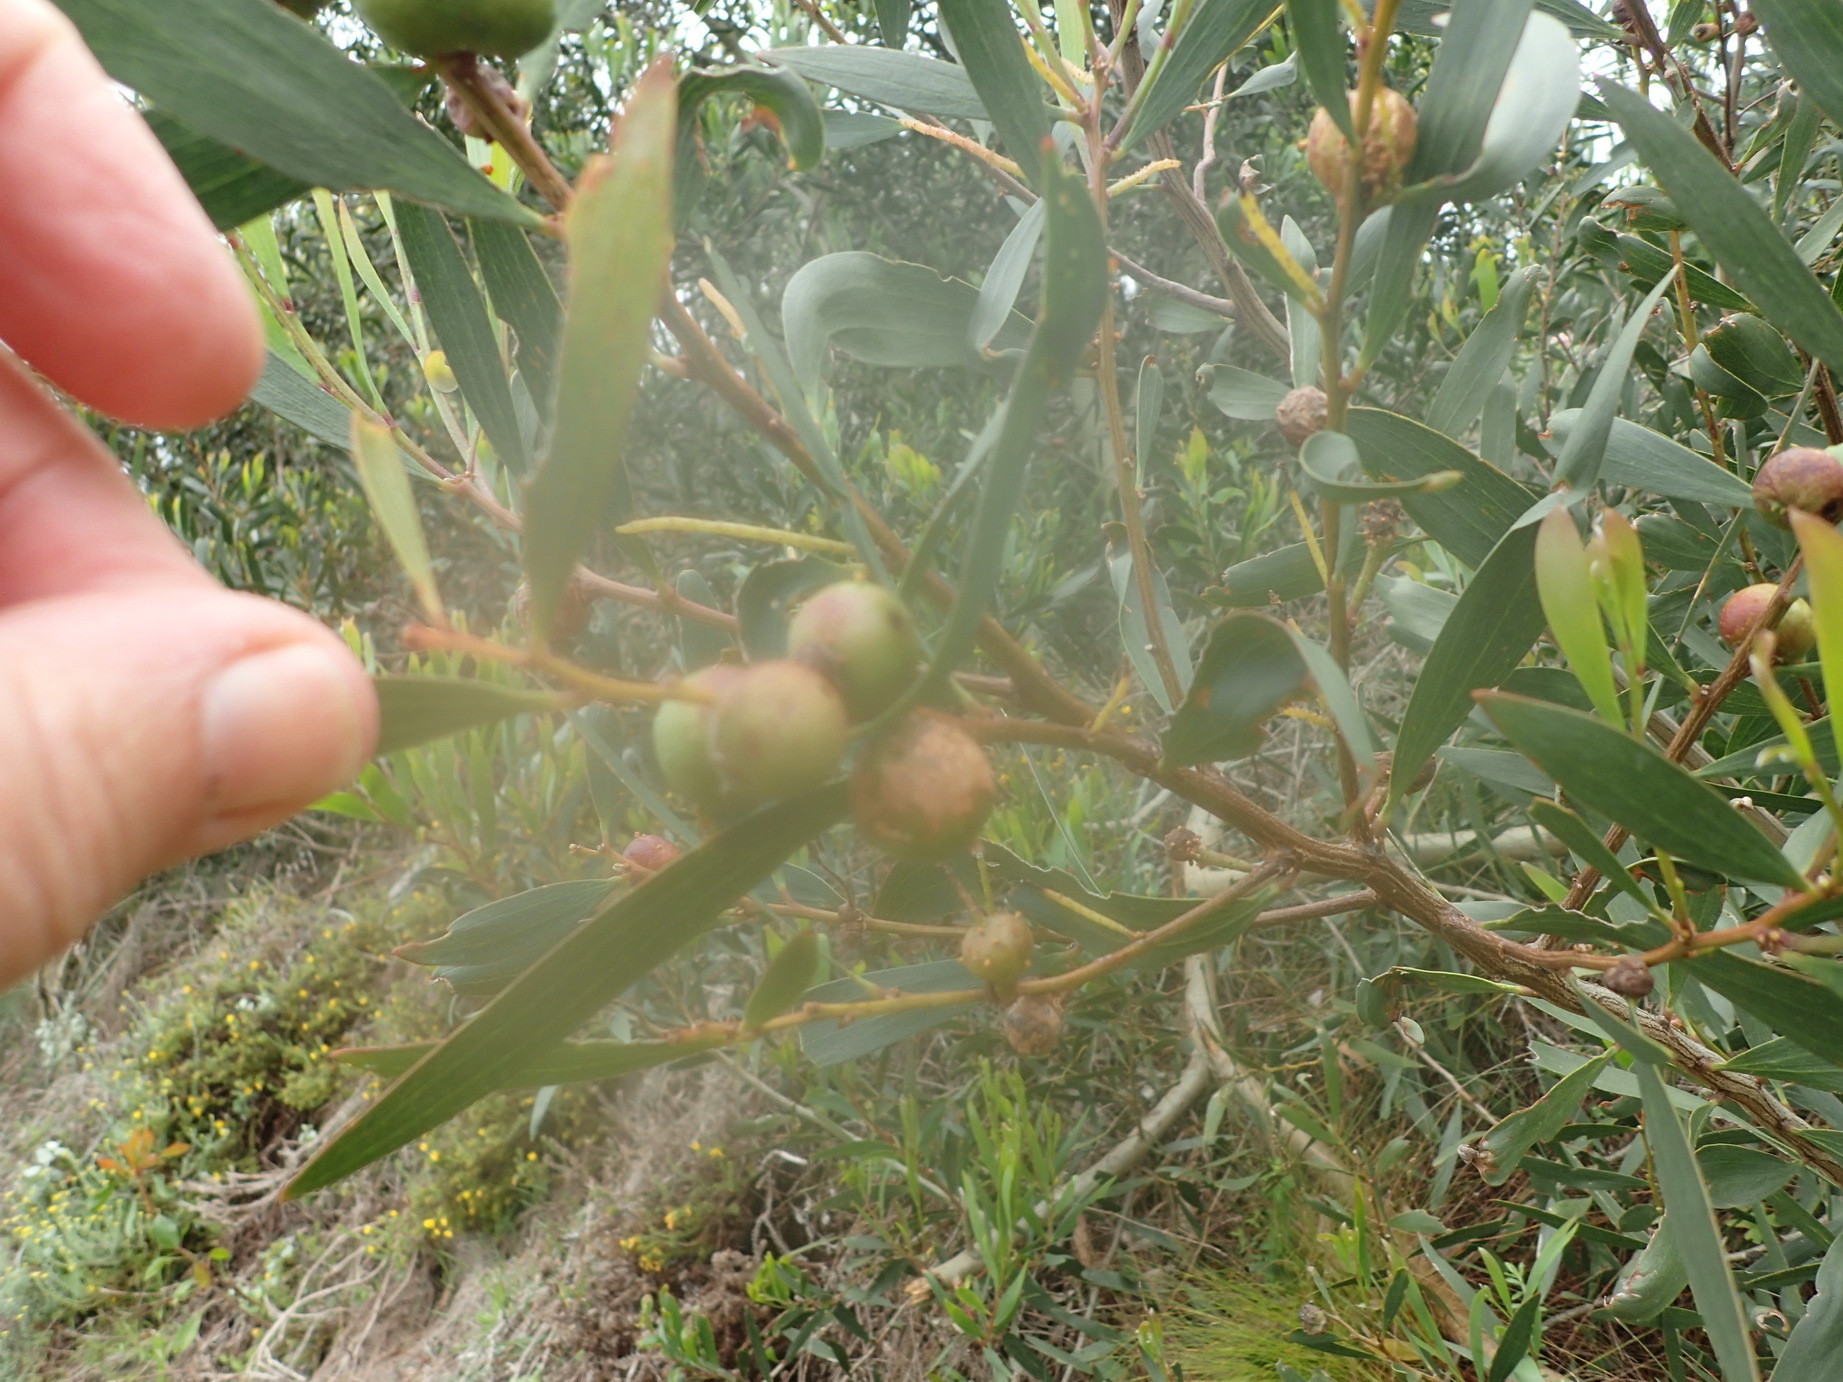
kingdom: Plantae
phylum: Tracheophyta
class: Magnoliopsida
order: Fabales
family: Fabaceae
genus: Acacia
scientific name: Acacia longifolia
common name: Sydney golden wattle
